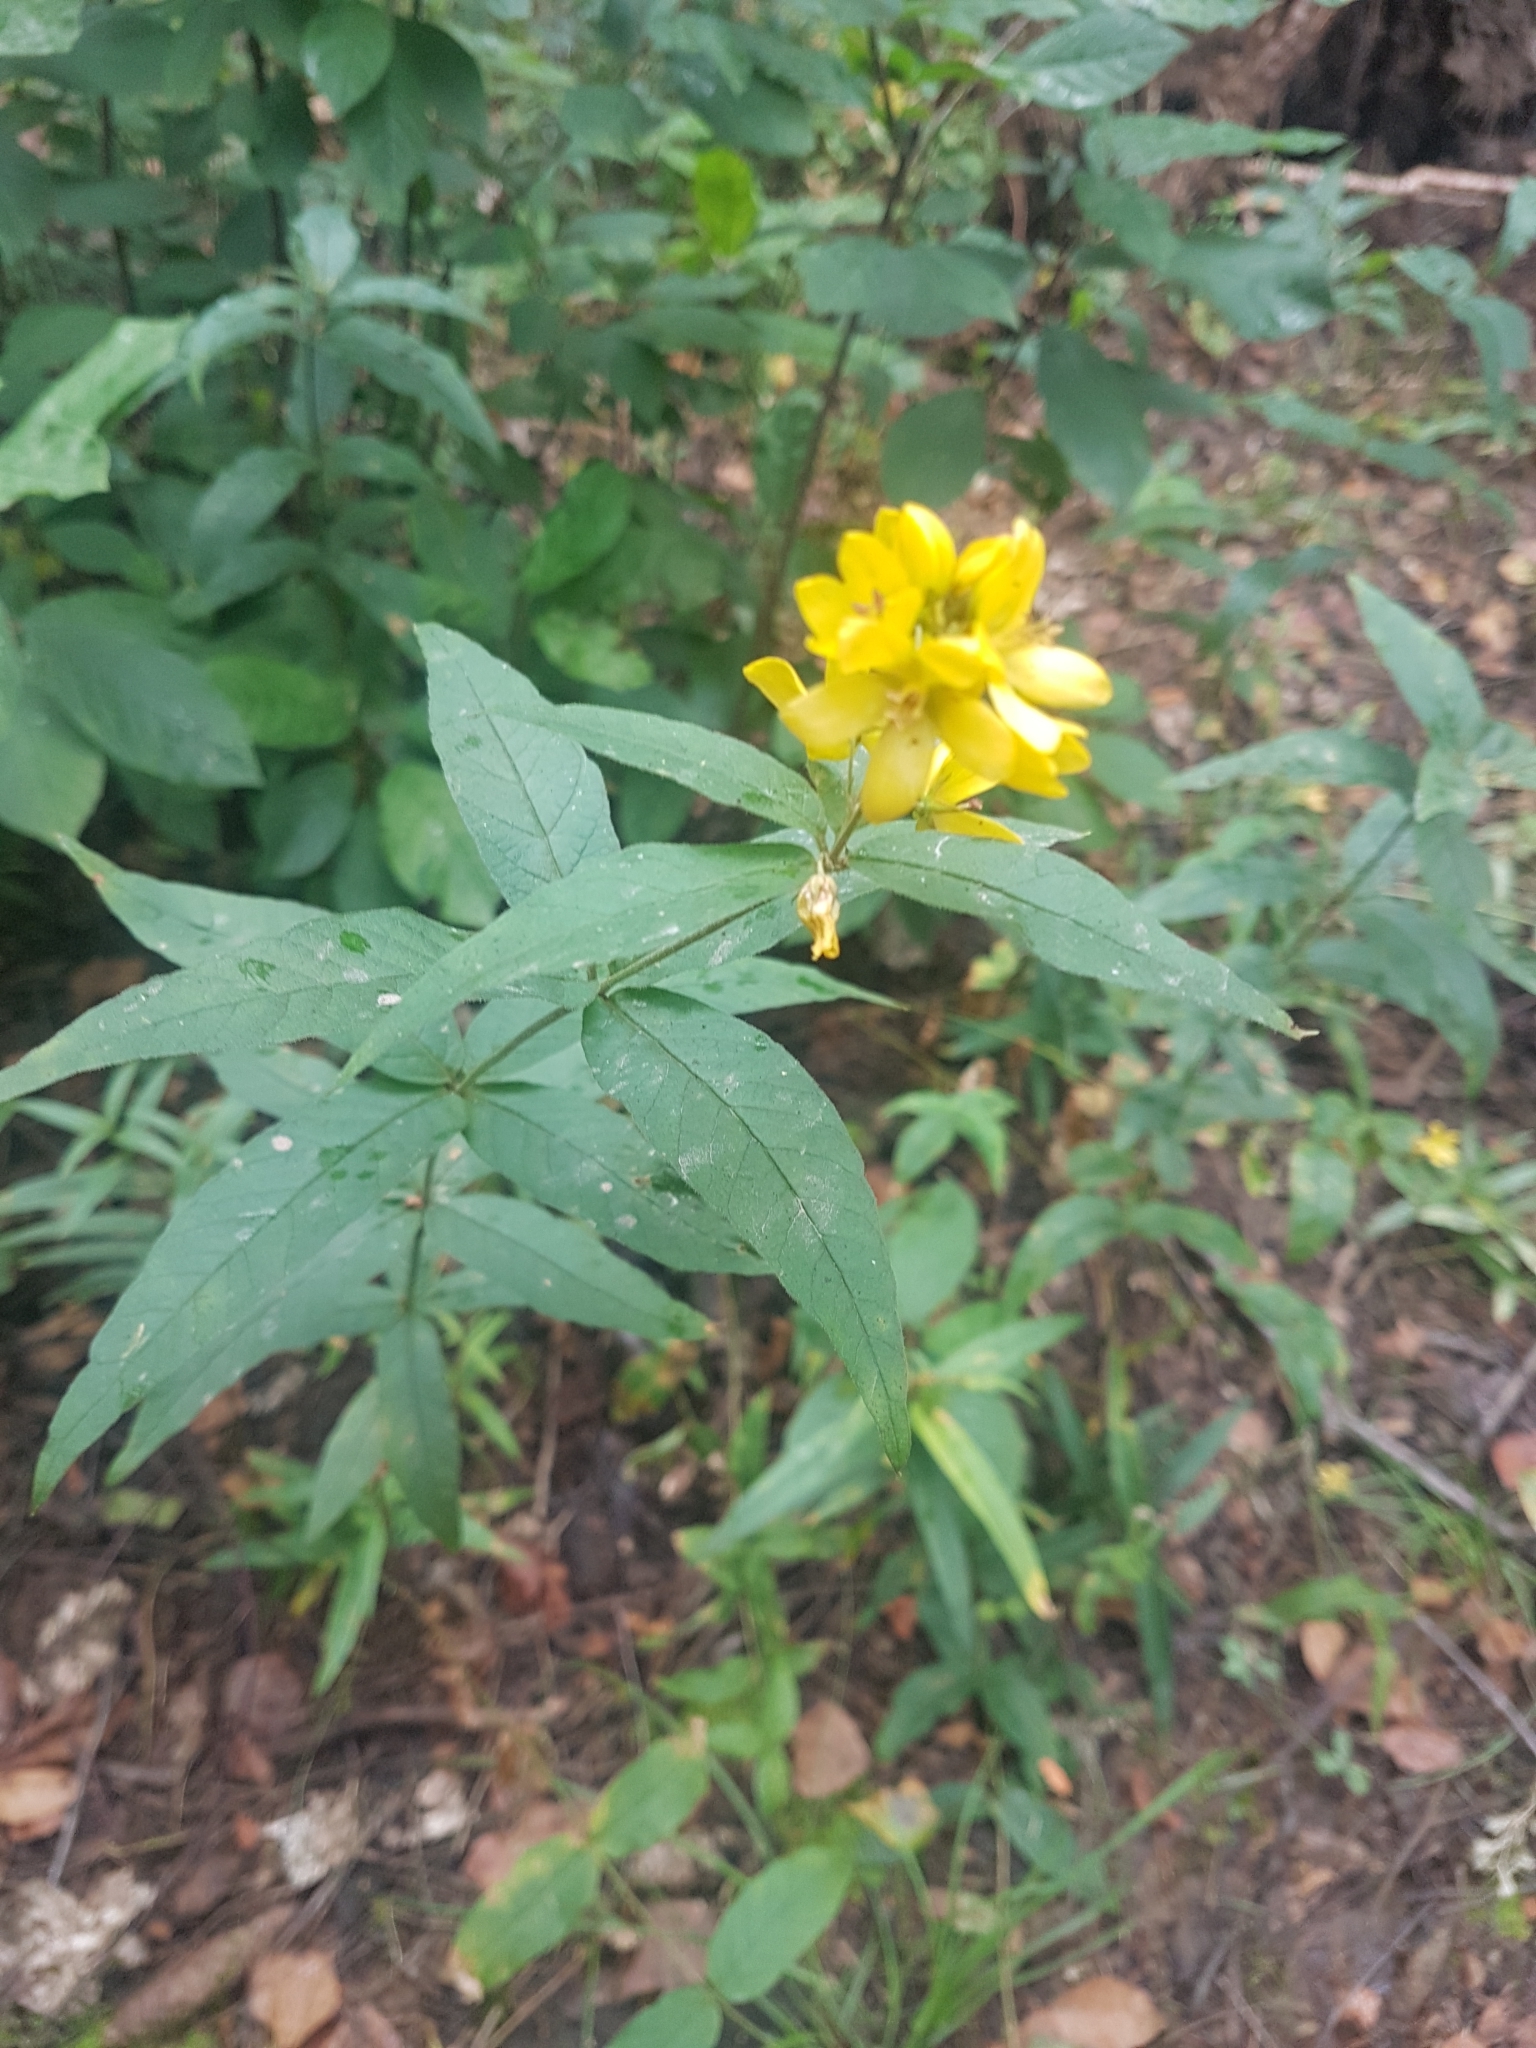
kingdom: Plantae
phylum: Tracheophyta
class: Magnoliopsida
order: Ericales
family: Primulaceae
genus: Lysimachia
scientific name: Lysimachia vulgaris
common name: Yellow loosestrife
